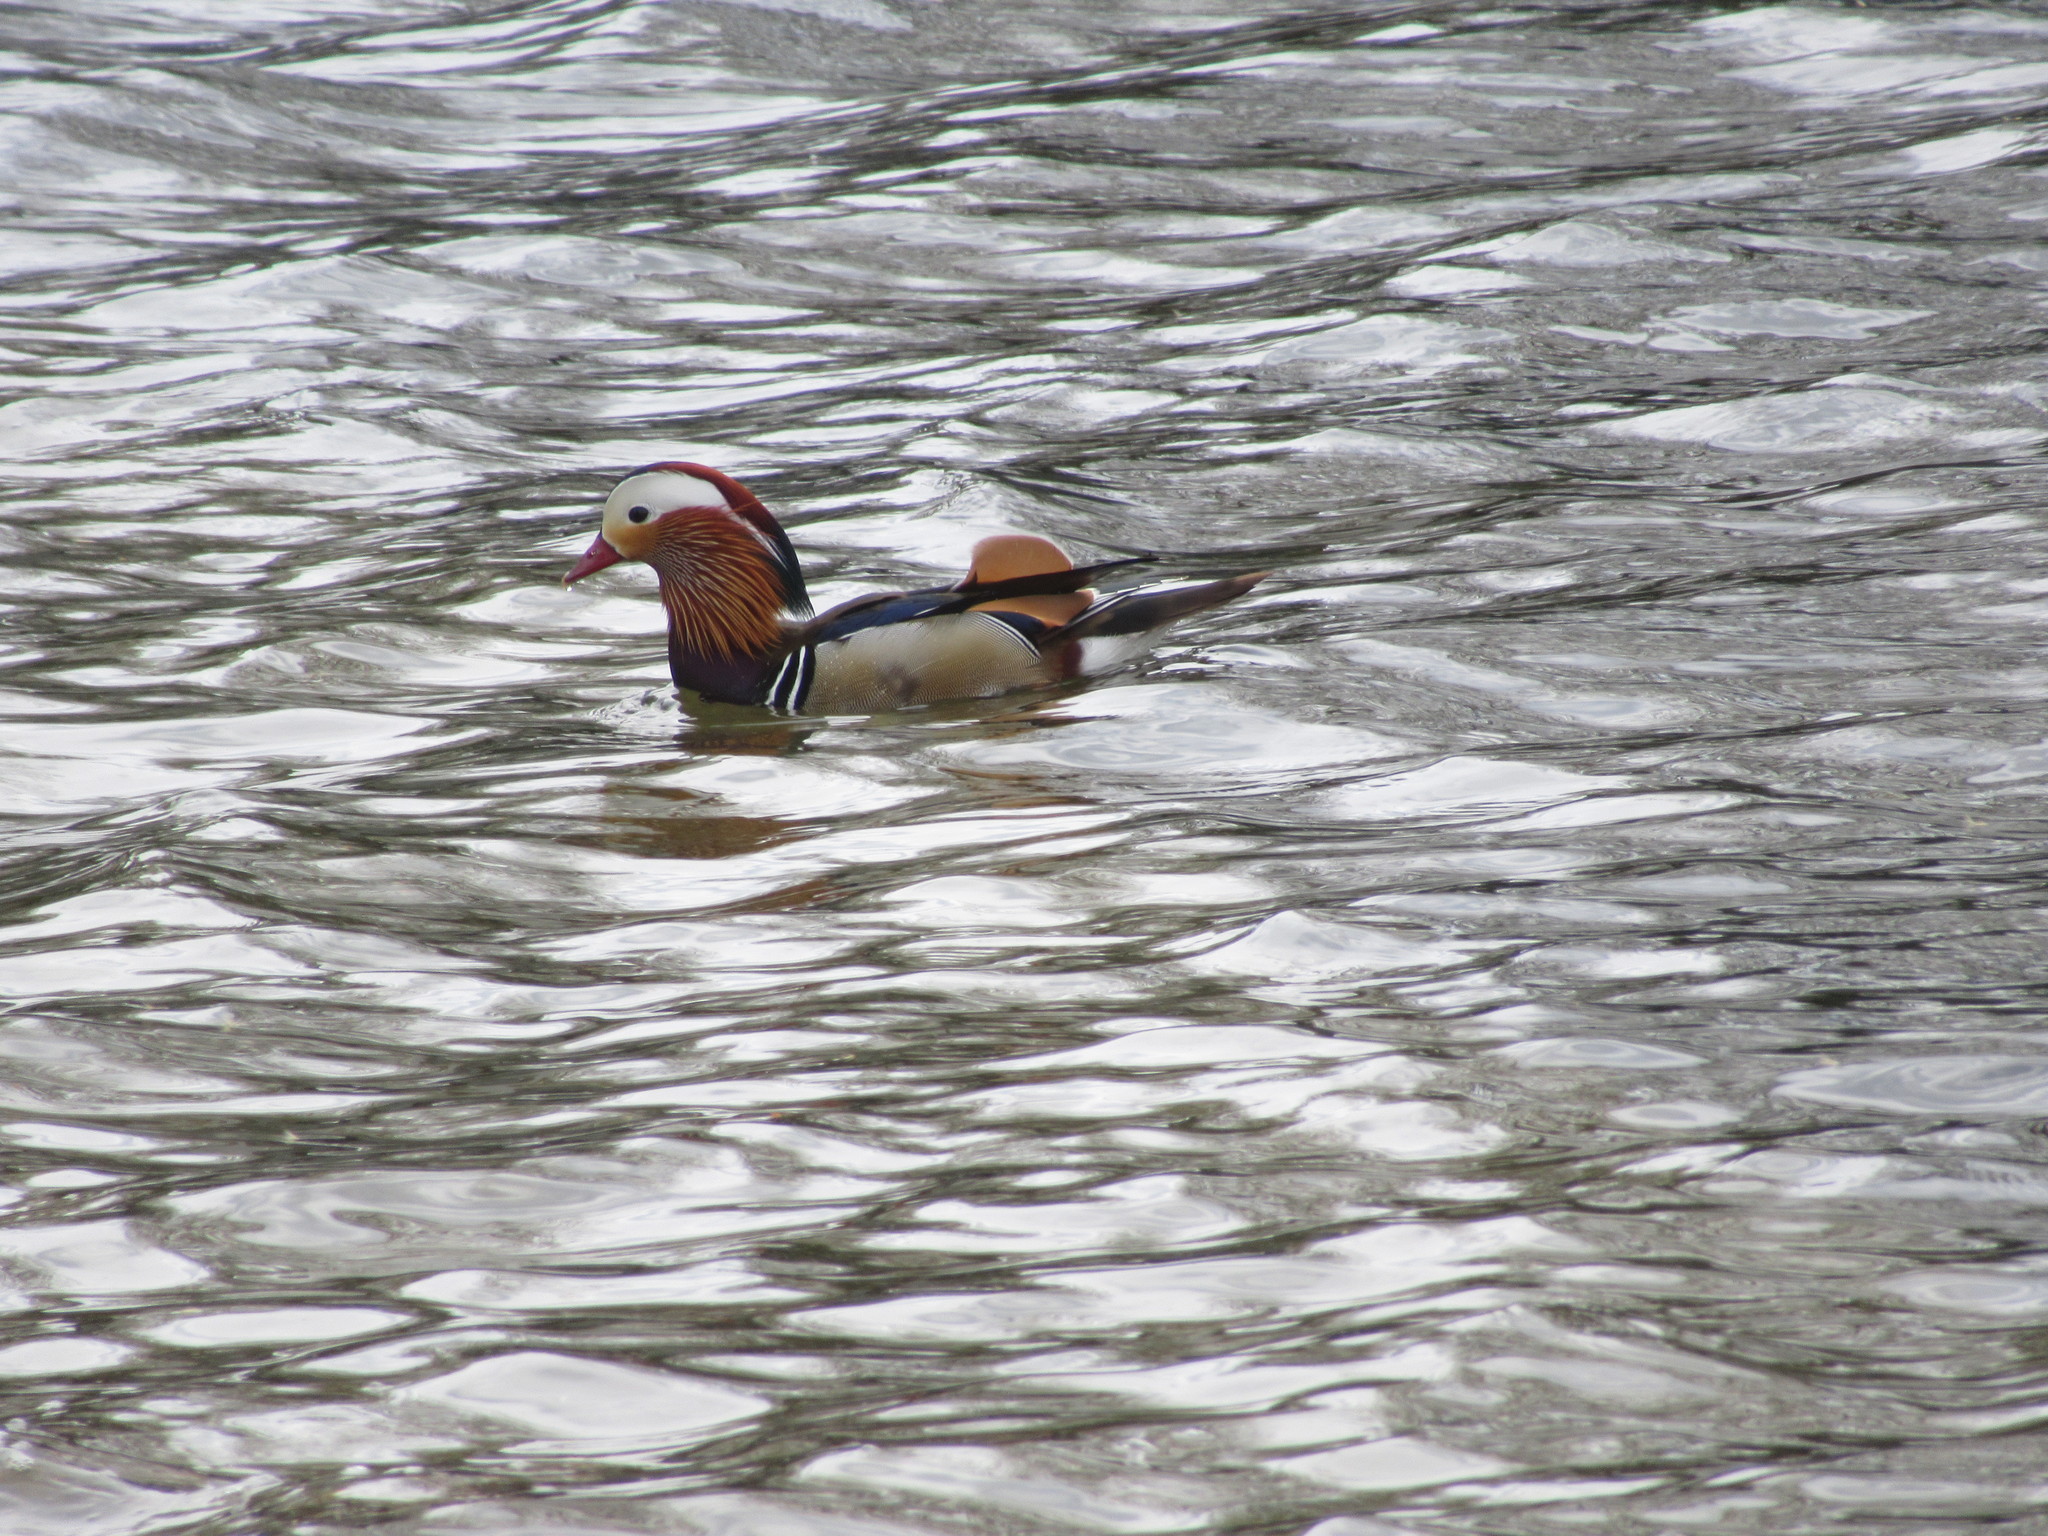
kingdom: Animalia
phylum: Chordata
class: Aves
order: Anseriformes
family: Anatidae
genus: Aix
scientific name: Aix galericulata
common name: Mandarin duck
